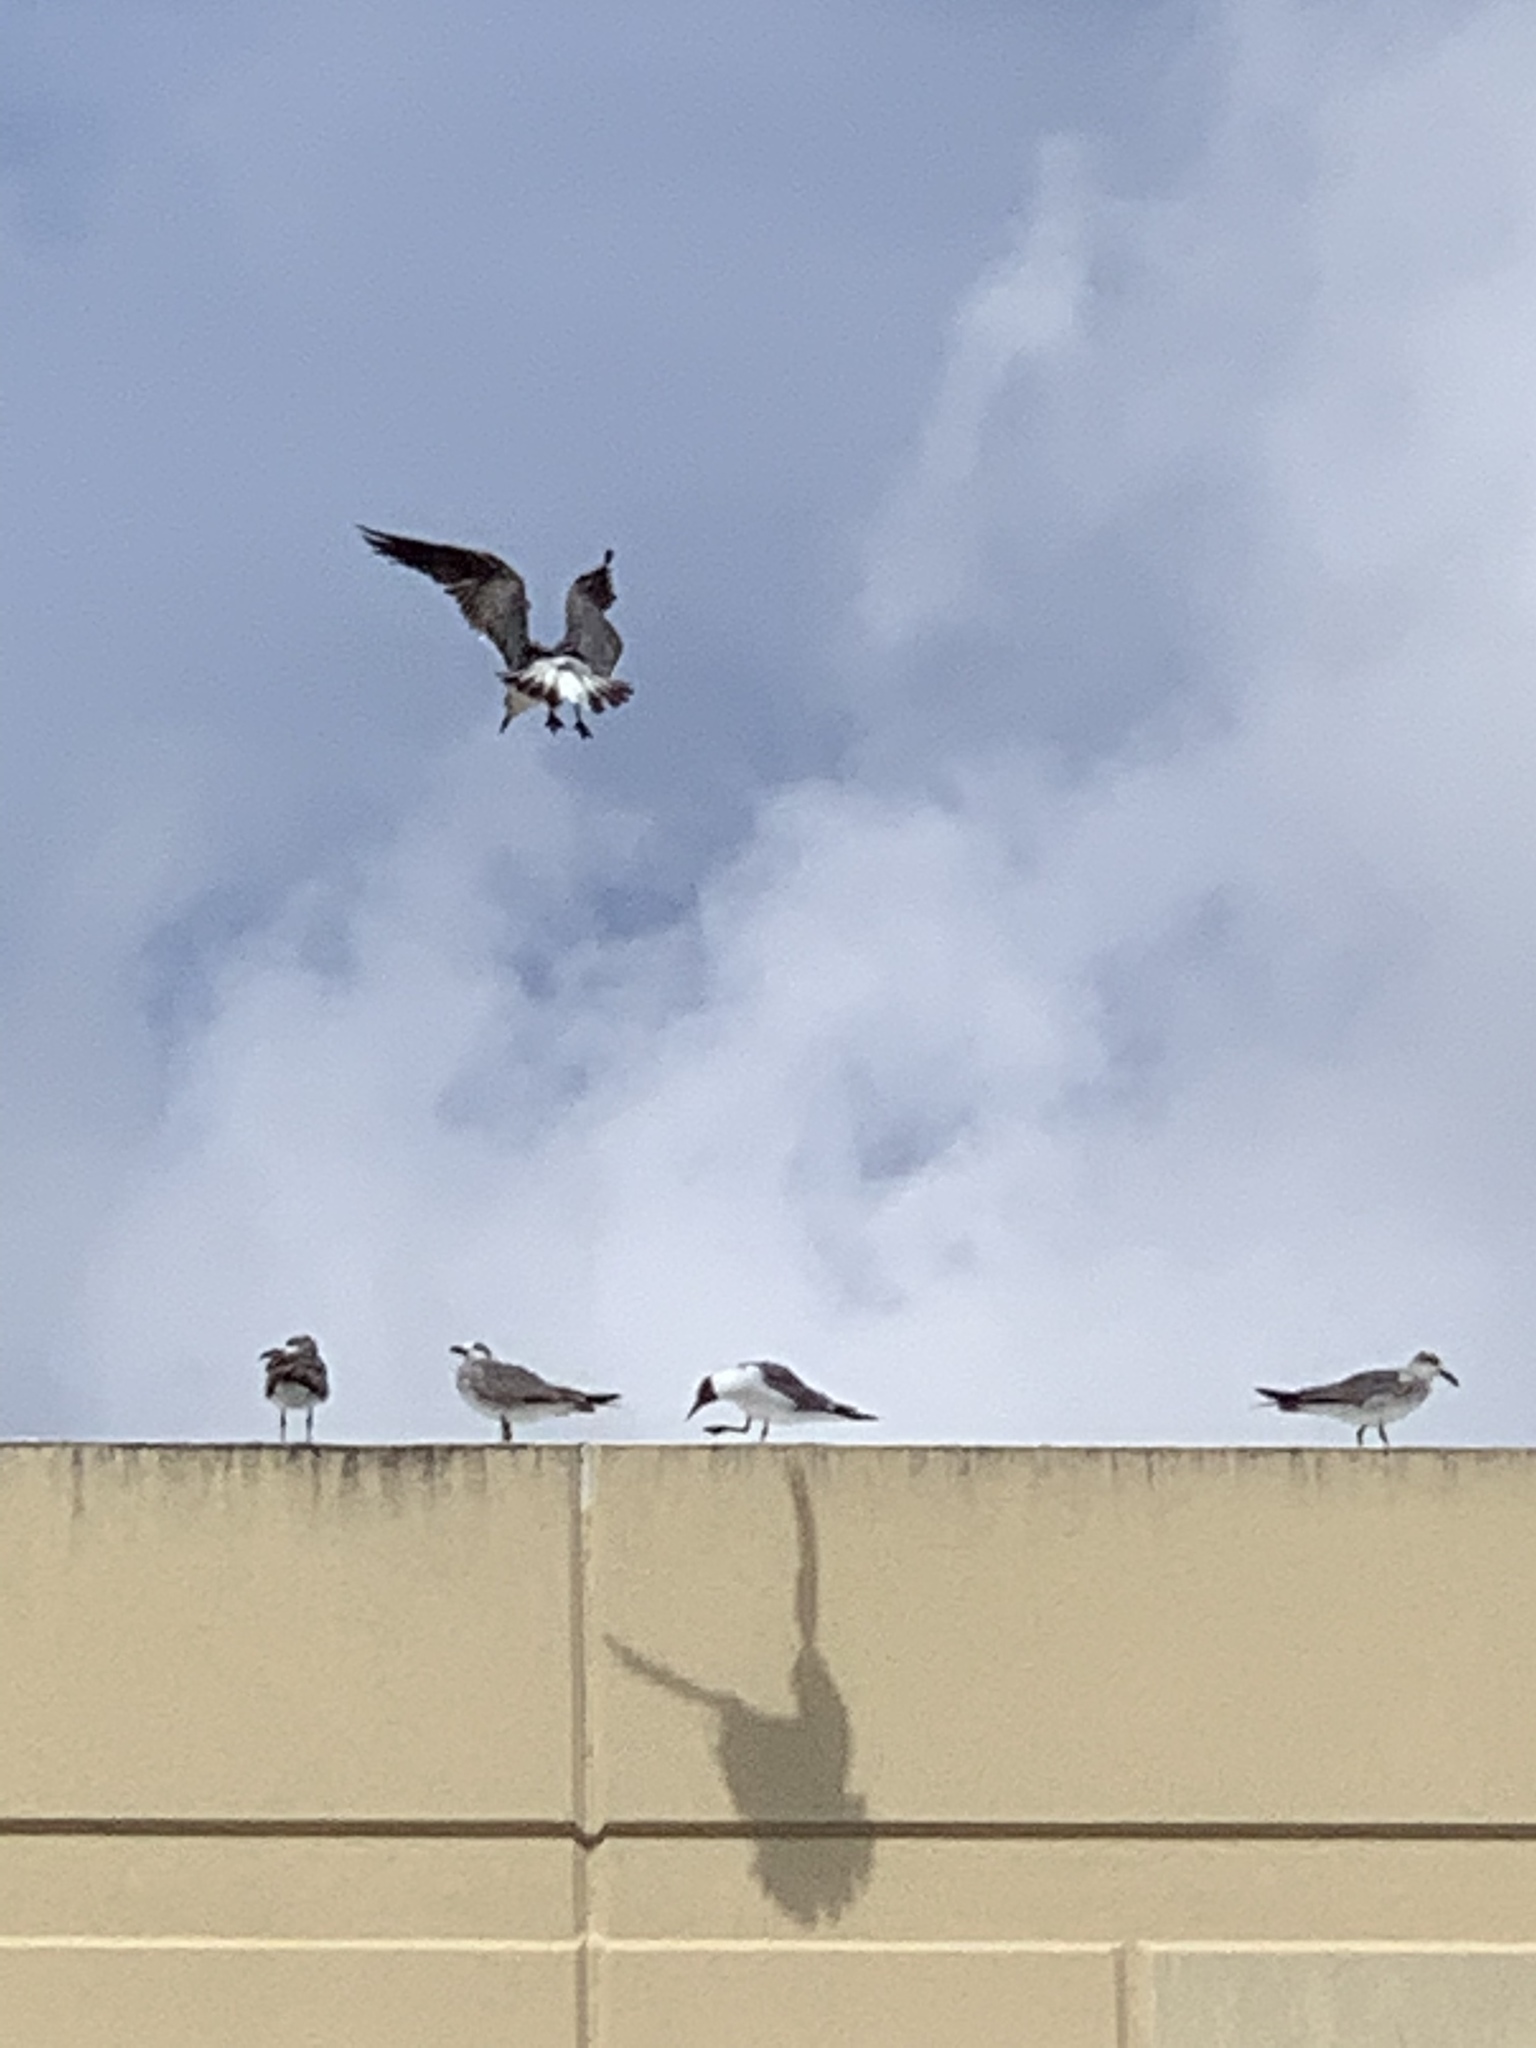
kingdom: Animalia
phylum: Chordata
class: Aves
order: Charadriiformes
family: Laridae
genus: Leucophaeus
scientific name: Leucophaeus atricilla
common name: Laughing gull
